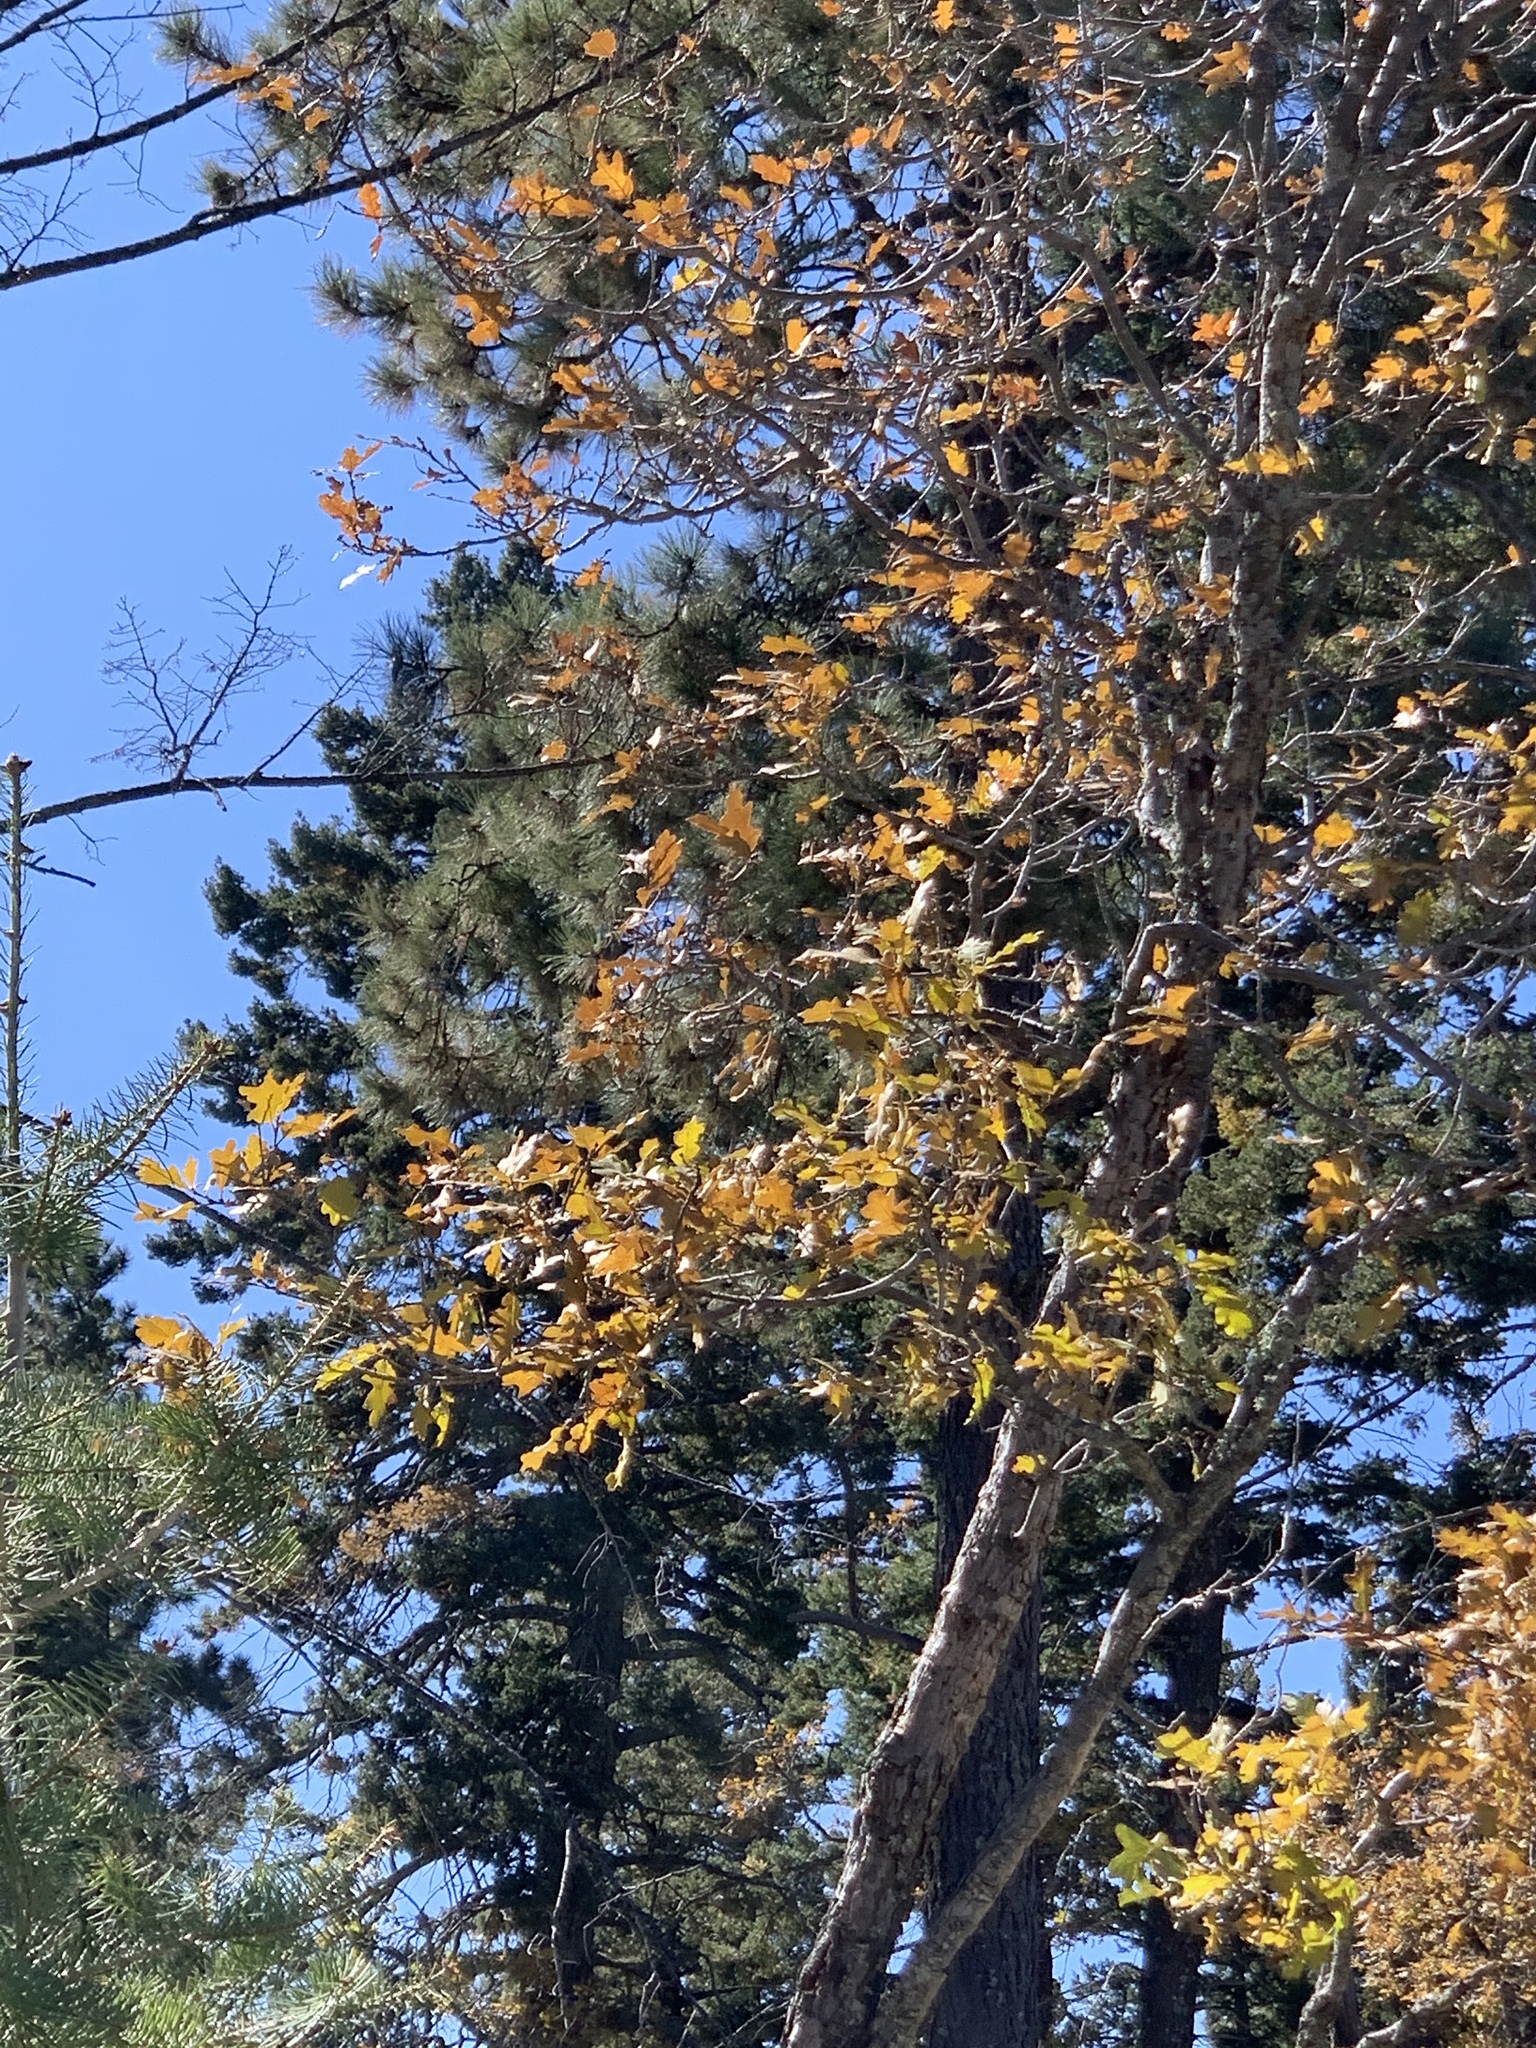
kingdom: Plantae
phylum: Tracheophyta
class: Magnoliopsida
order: Fagales
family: Fagaceae
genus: Quercus
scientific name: Quercus gambelii
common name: Gambel oak
